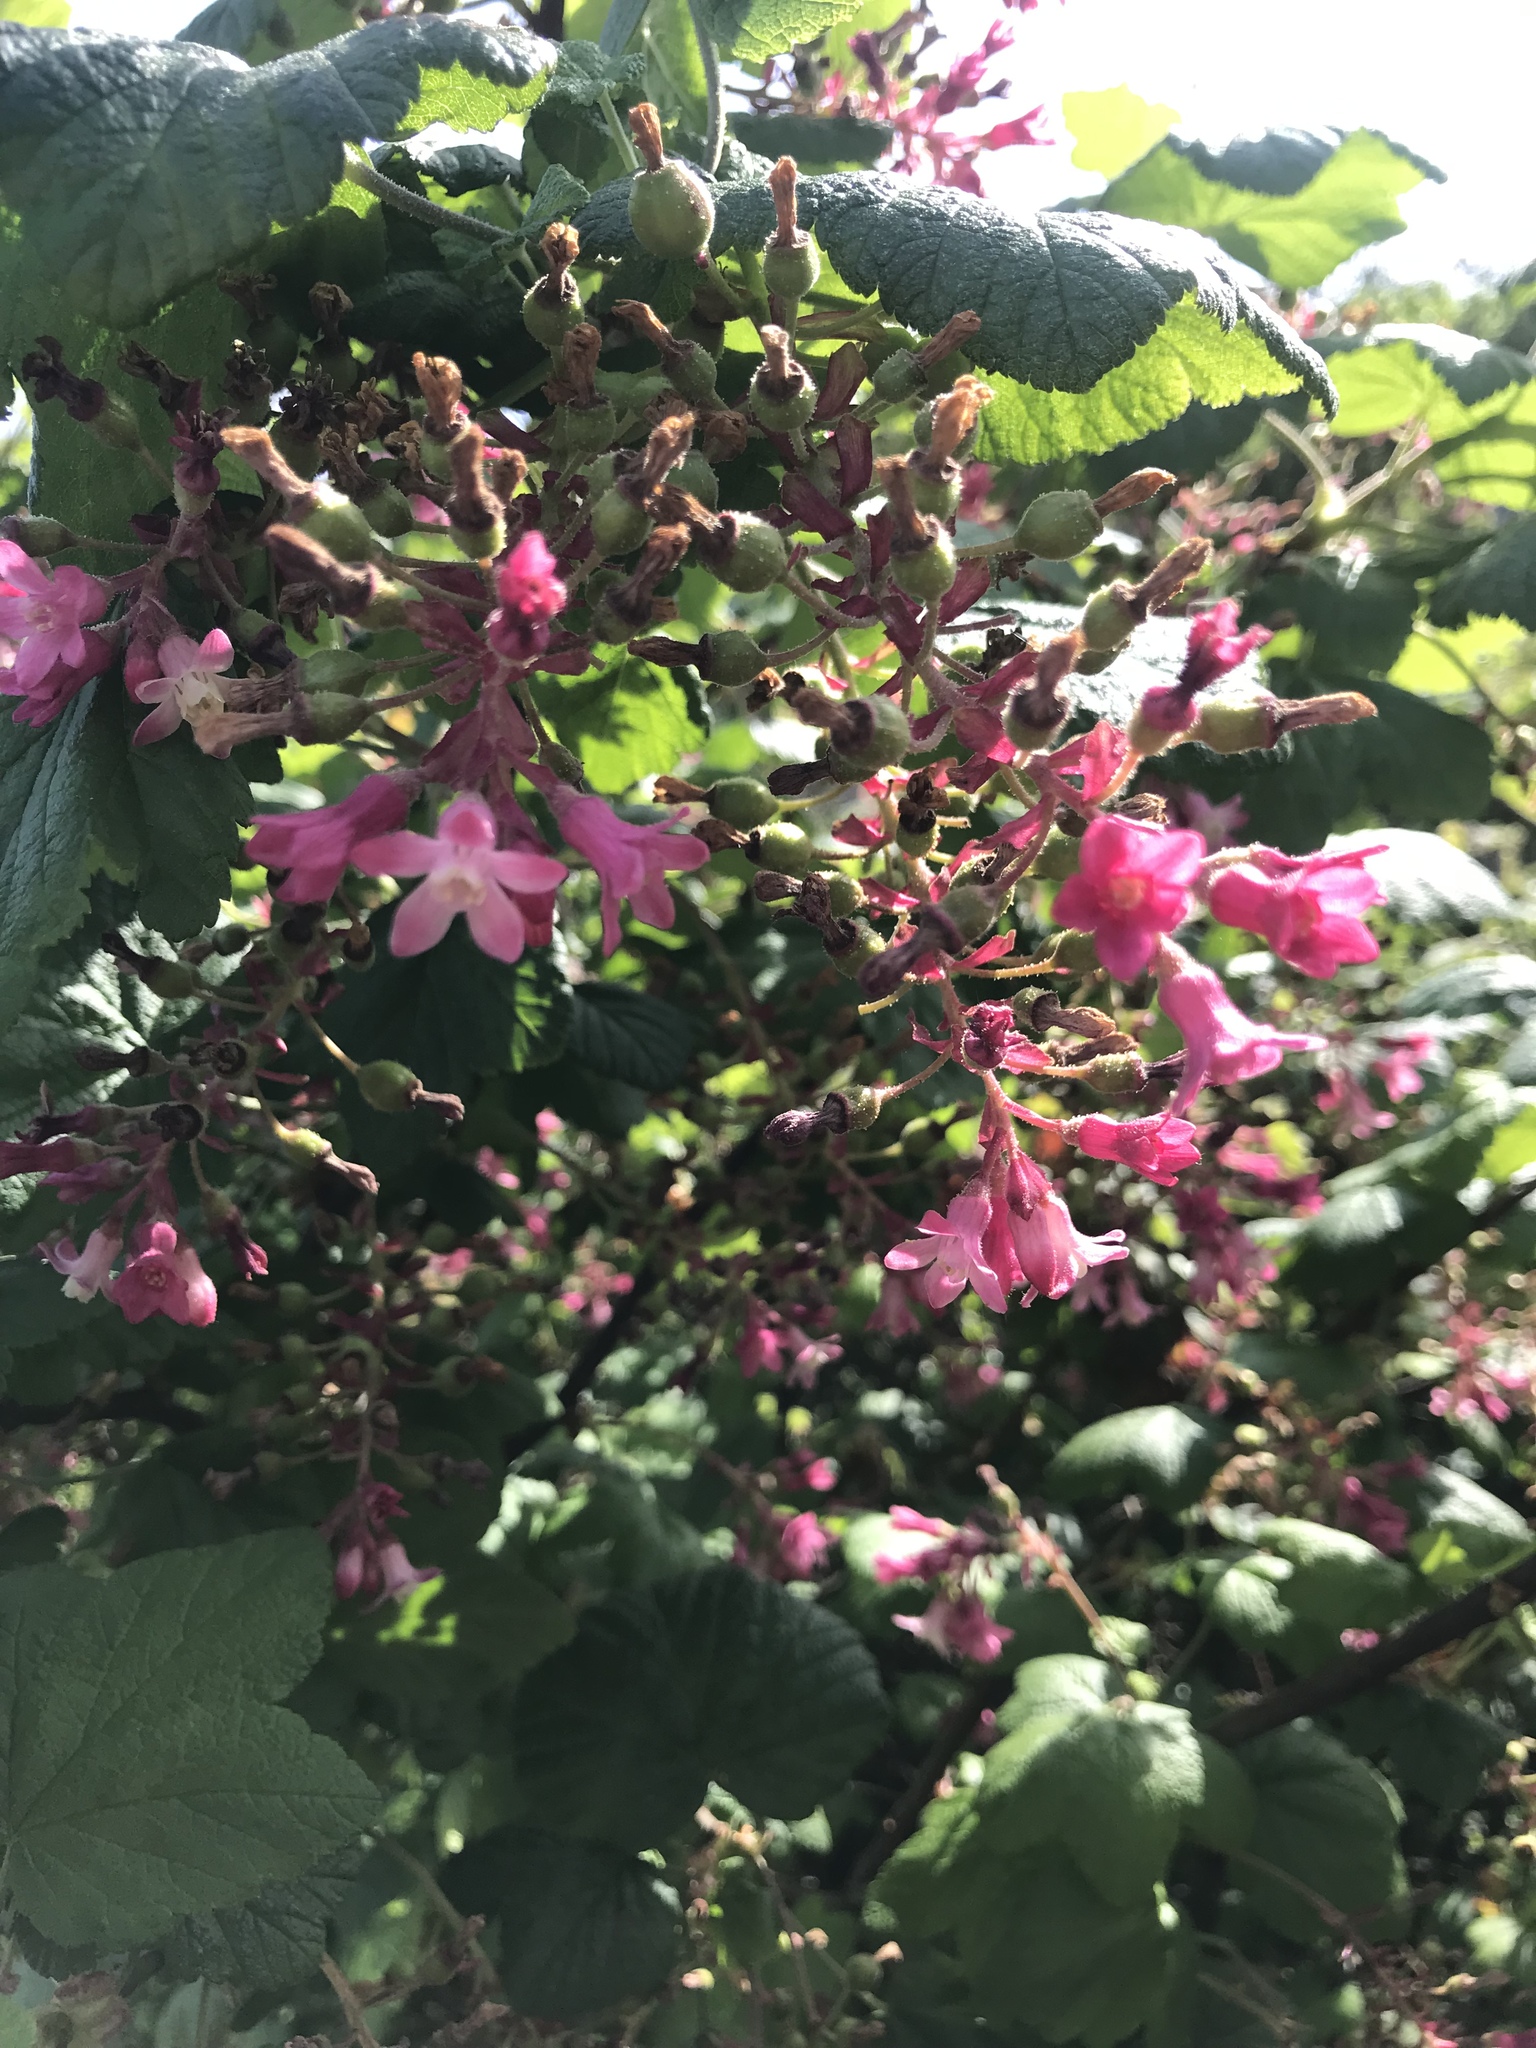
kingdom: Plantae
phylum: Tracheophyta
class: Magnoliopsida
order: Saxifragales
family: Grossulariaceae
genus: Ribes
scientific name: Ribes sanguineum
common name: Flowering currant
